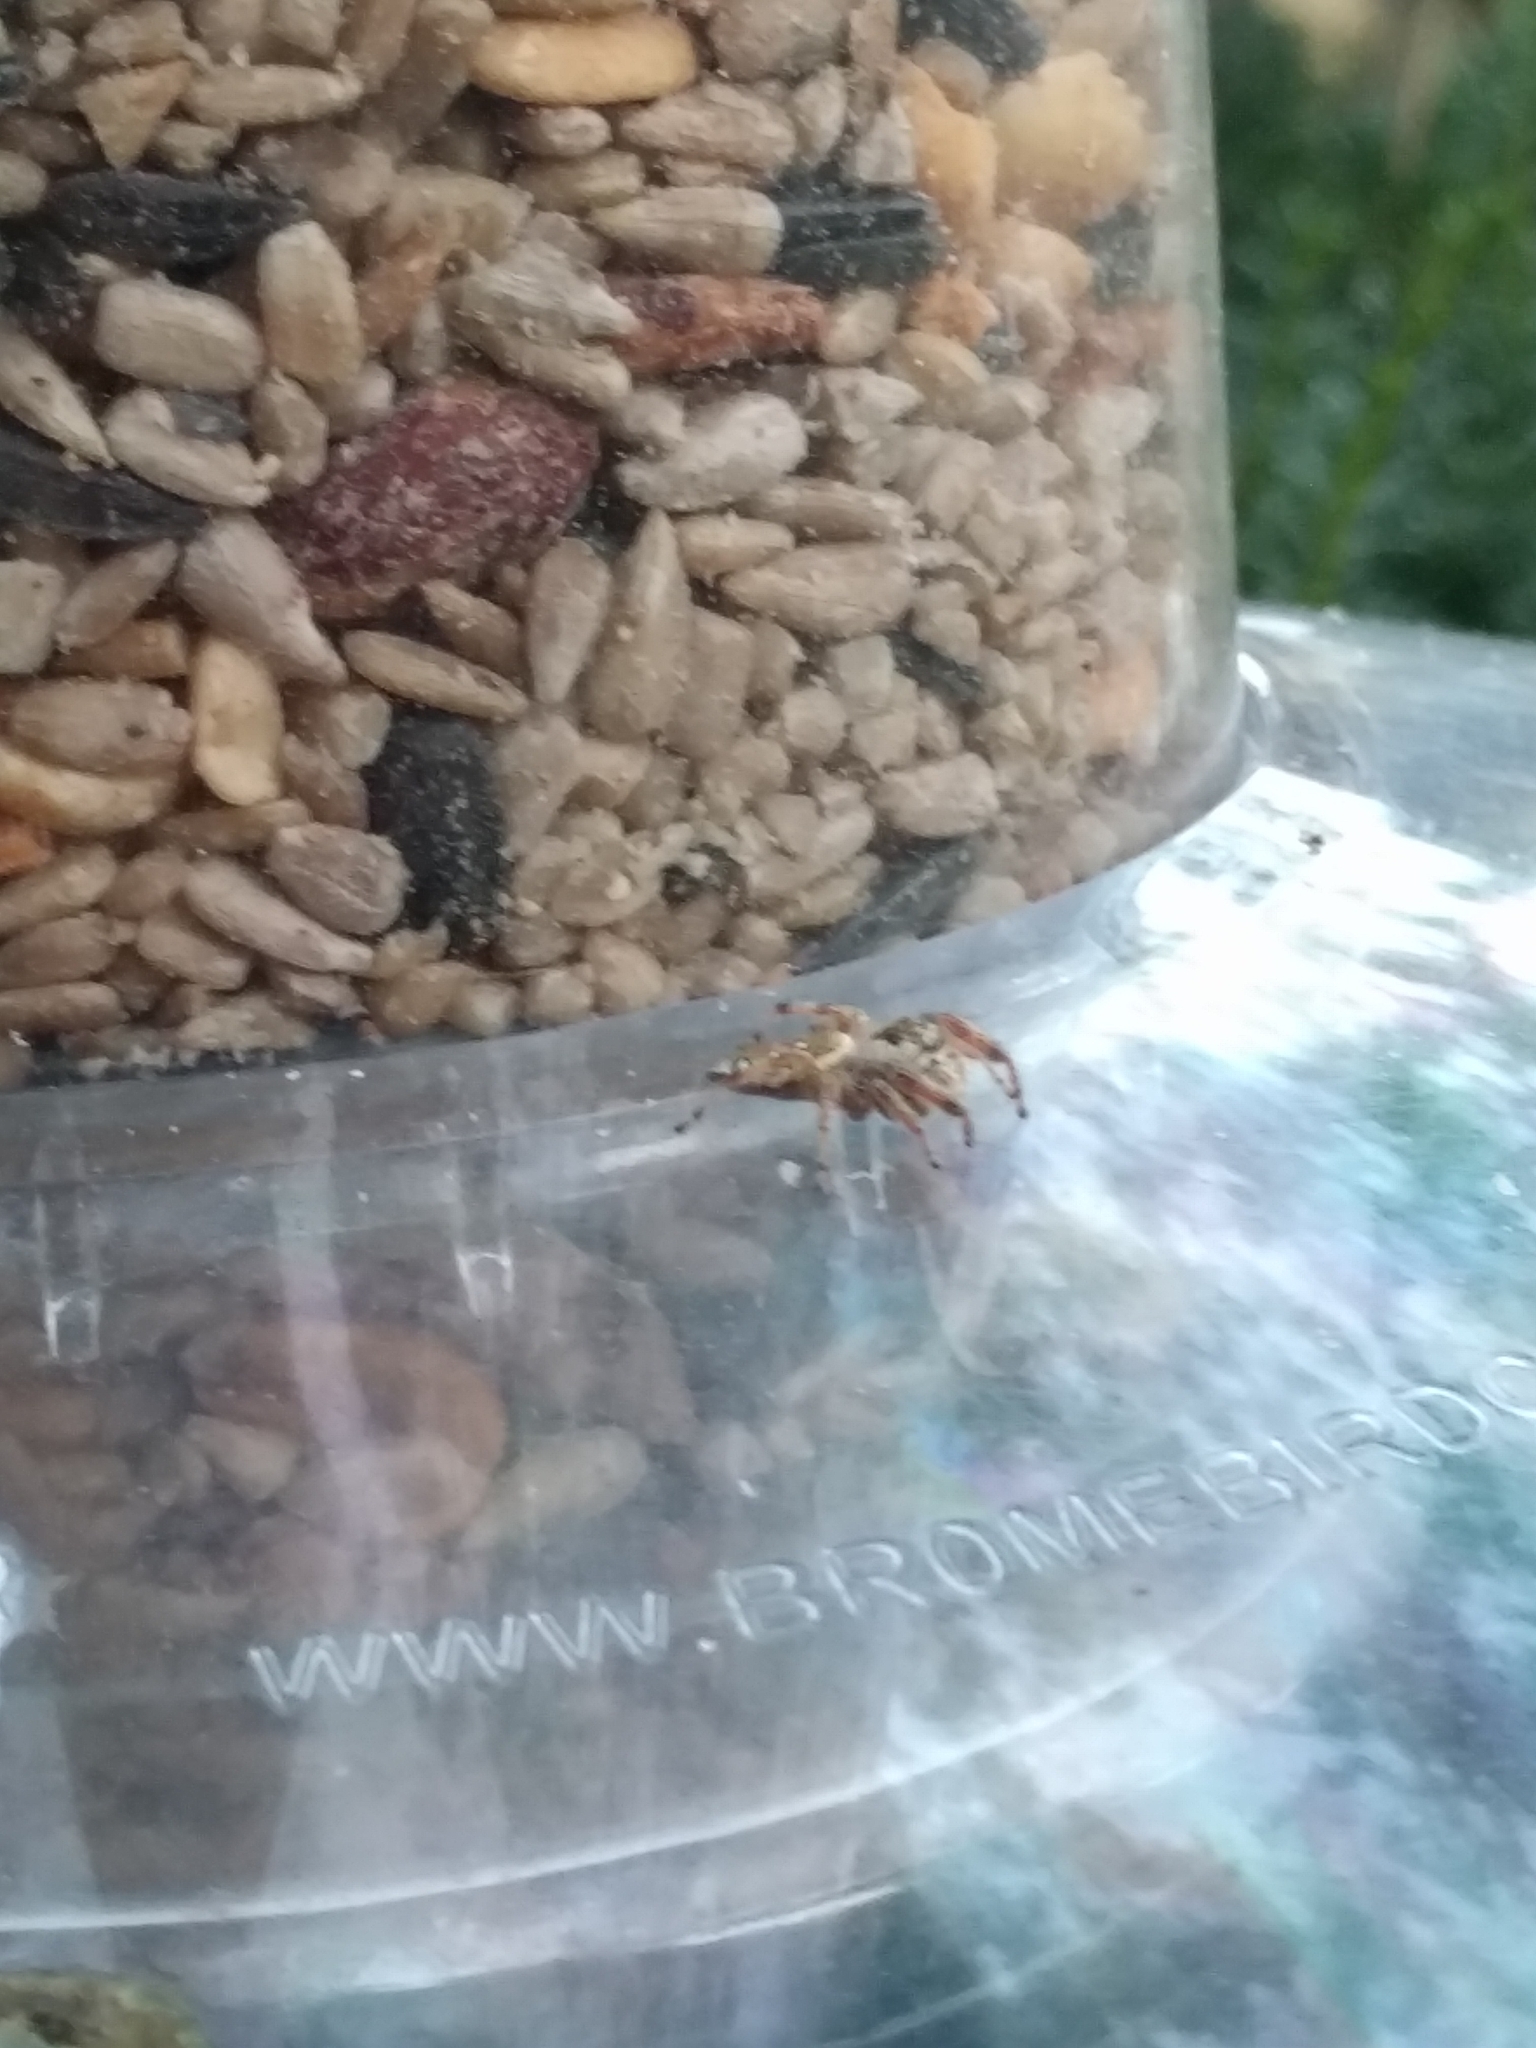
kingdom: Animalia
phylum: Arthropoda
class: Arachnida
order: Araneae
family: Salticidae
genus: Paraphidippus
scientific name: Paraphidippus aurantius
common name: Jumping spiders
